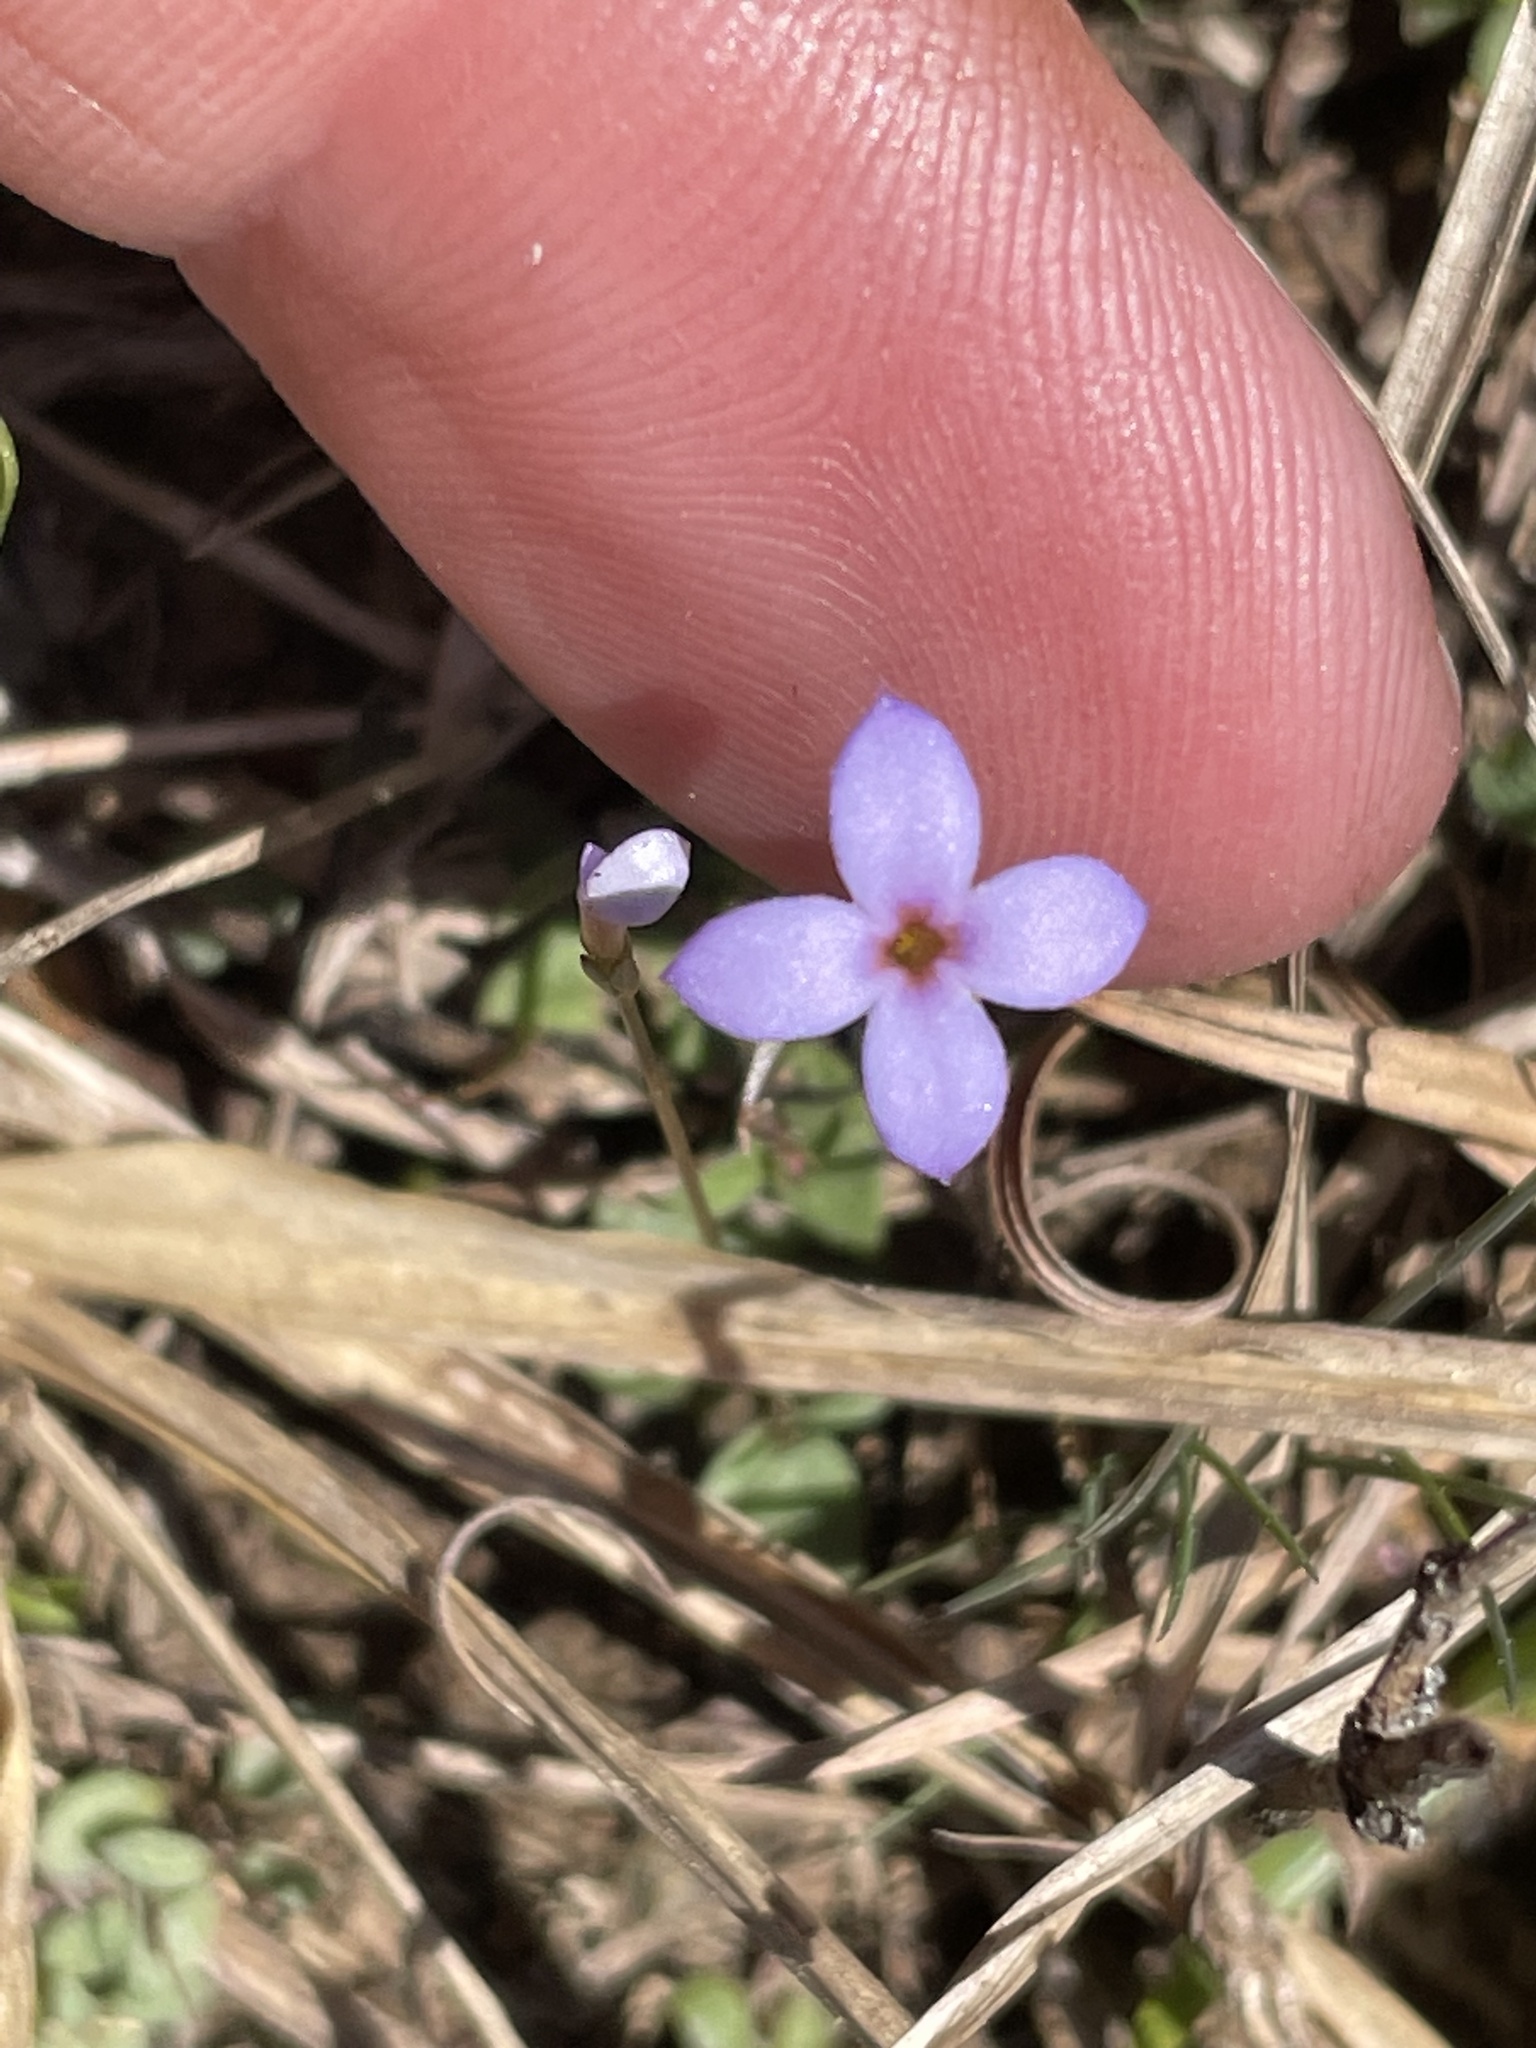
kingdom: Plantae
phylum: Tracheophyta
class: Magnoliopsida
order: Gentianales
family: Rubiaceae
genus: Houstonia
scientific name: Houstonia pusilla
